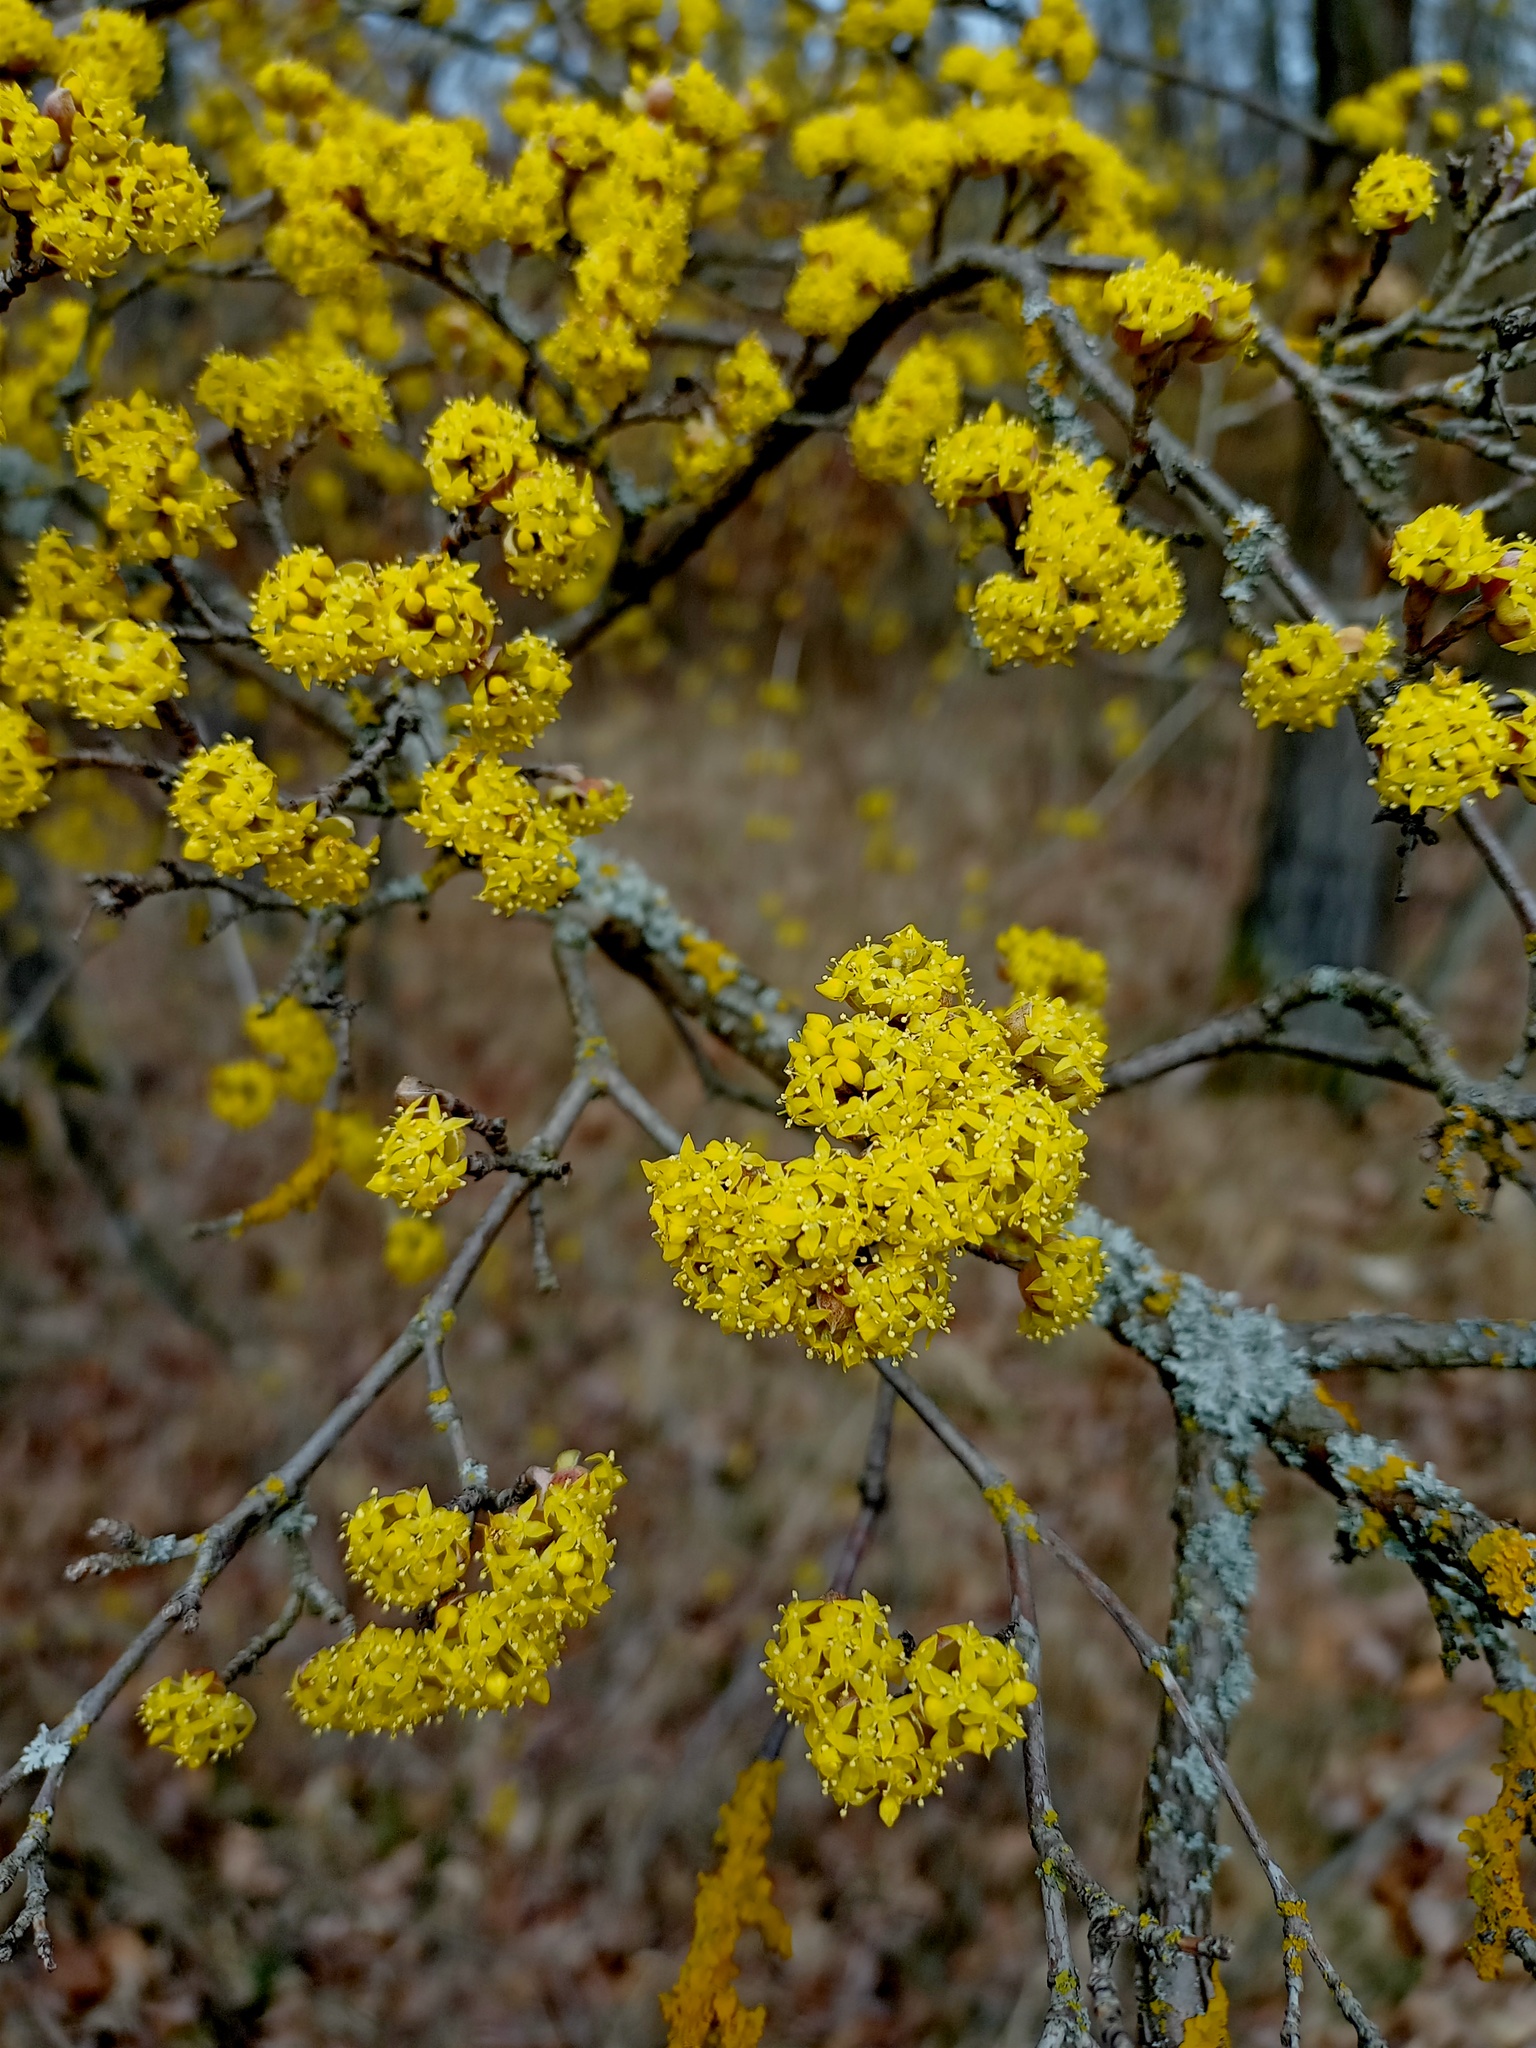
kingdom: Plantae
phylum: Tracheophyta
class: Magnoliopsida
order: Cornales
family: Cornaceae
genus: Cornus
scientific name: Cornus mas
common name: Cornelian-cherry
